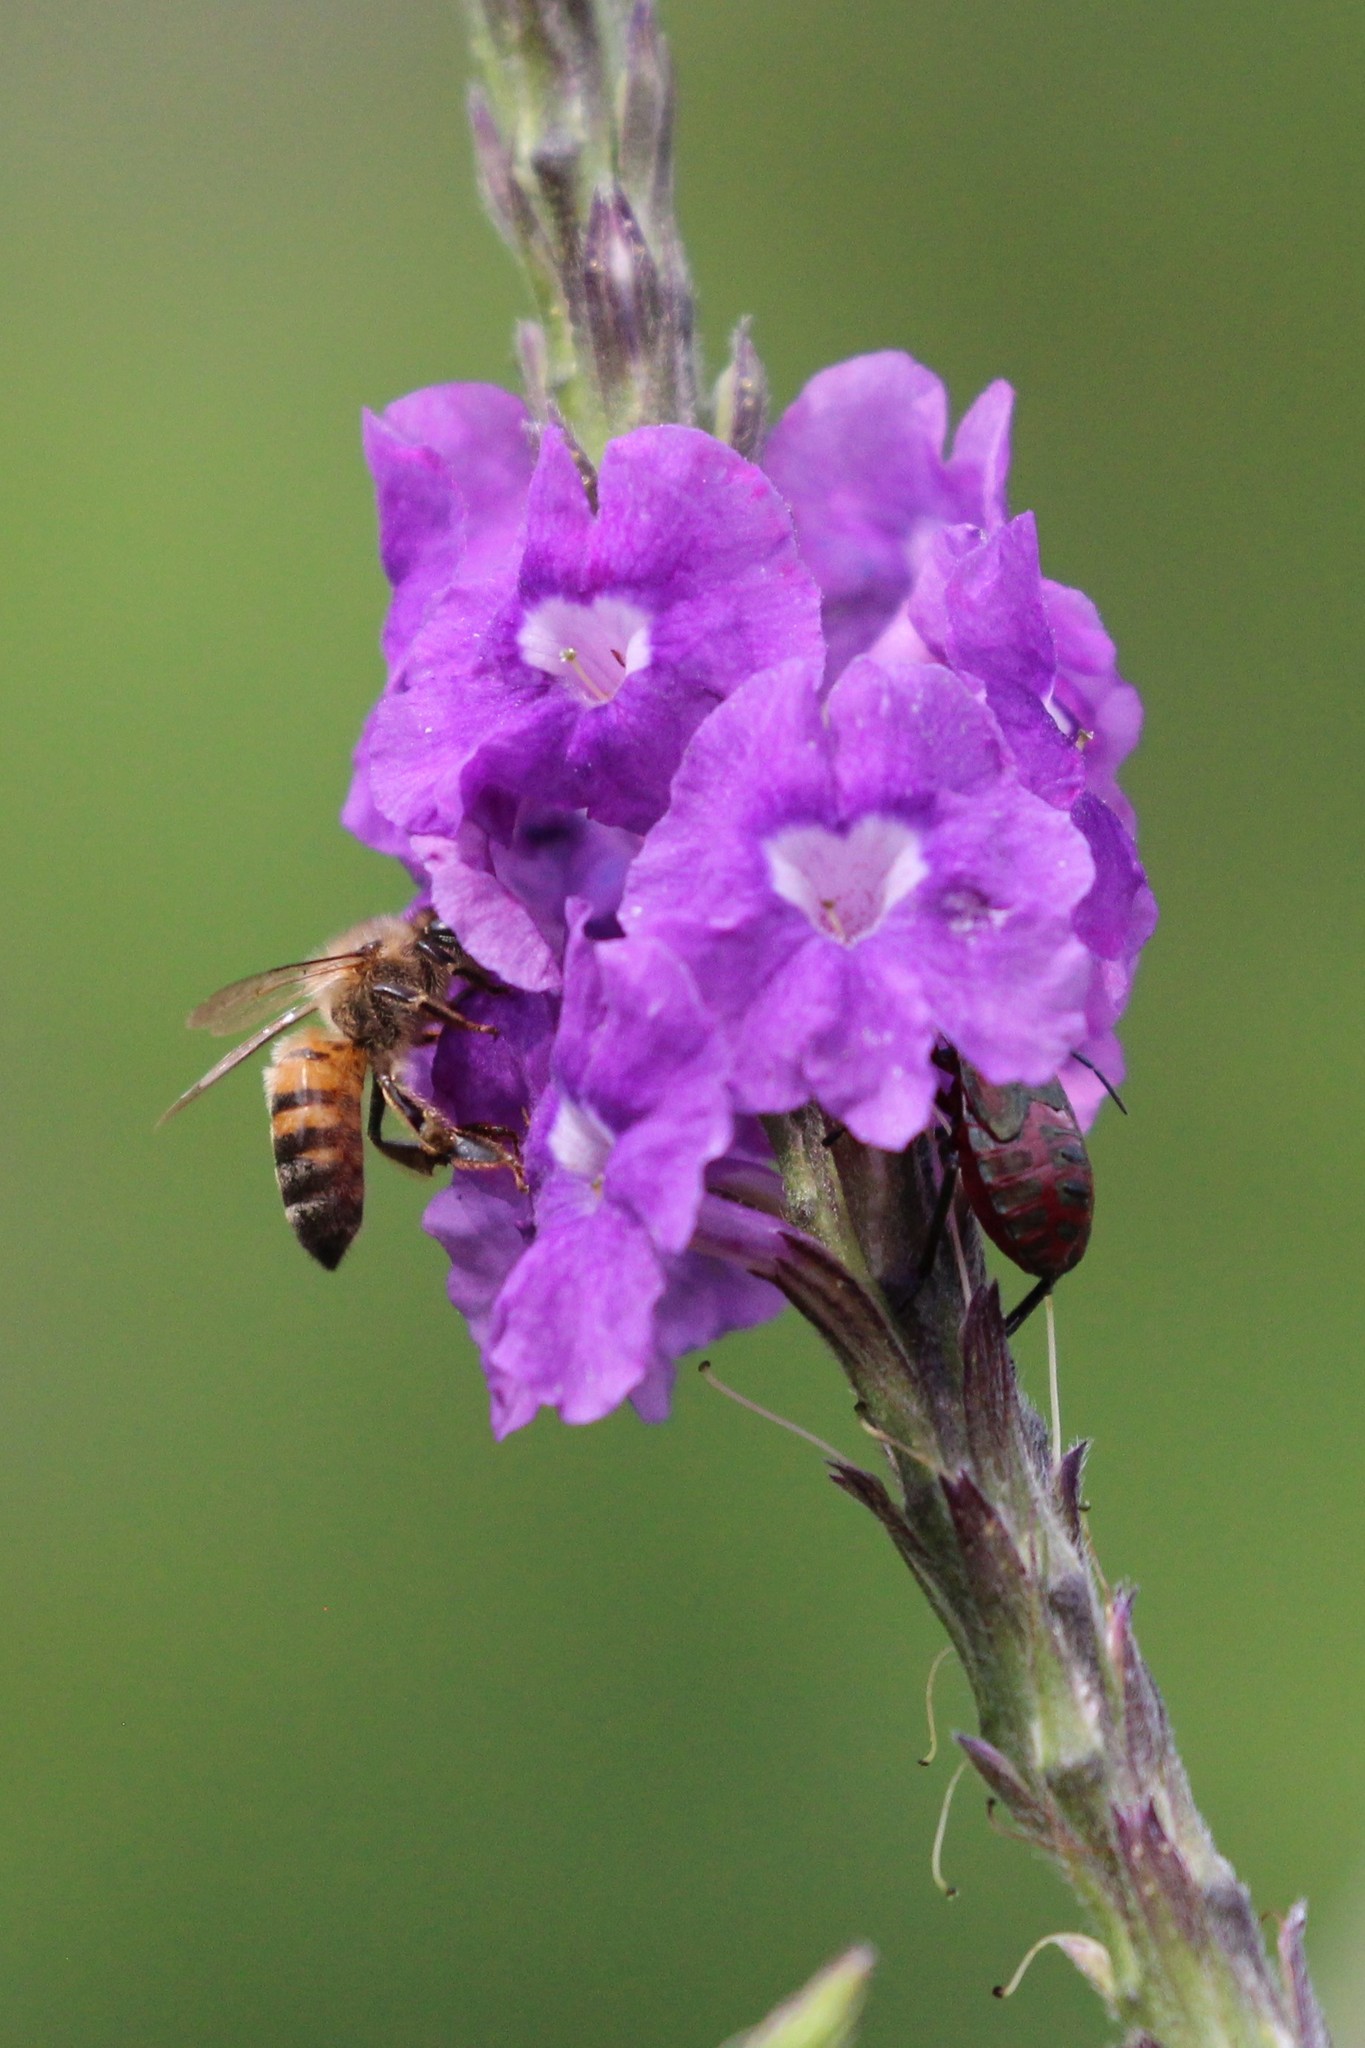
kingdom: Animalia
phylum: Arthropoda
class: Insecta
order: Hymenoptera
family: Apidae
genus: Apis
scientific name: Apis mellifera
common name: Honey bee
